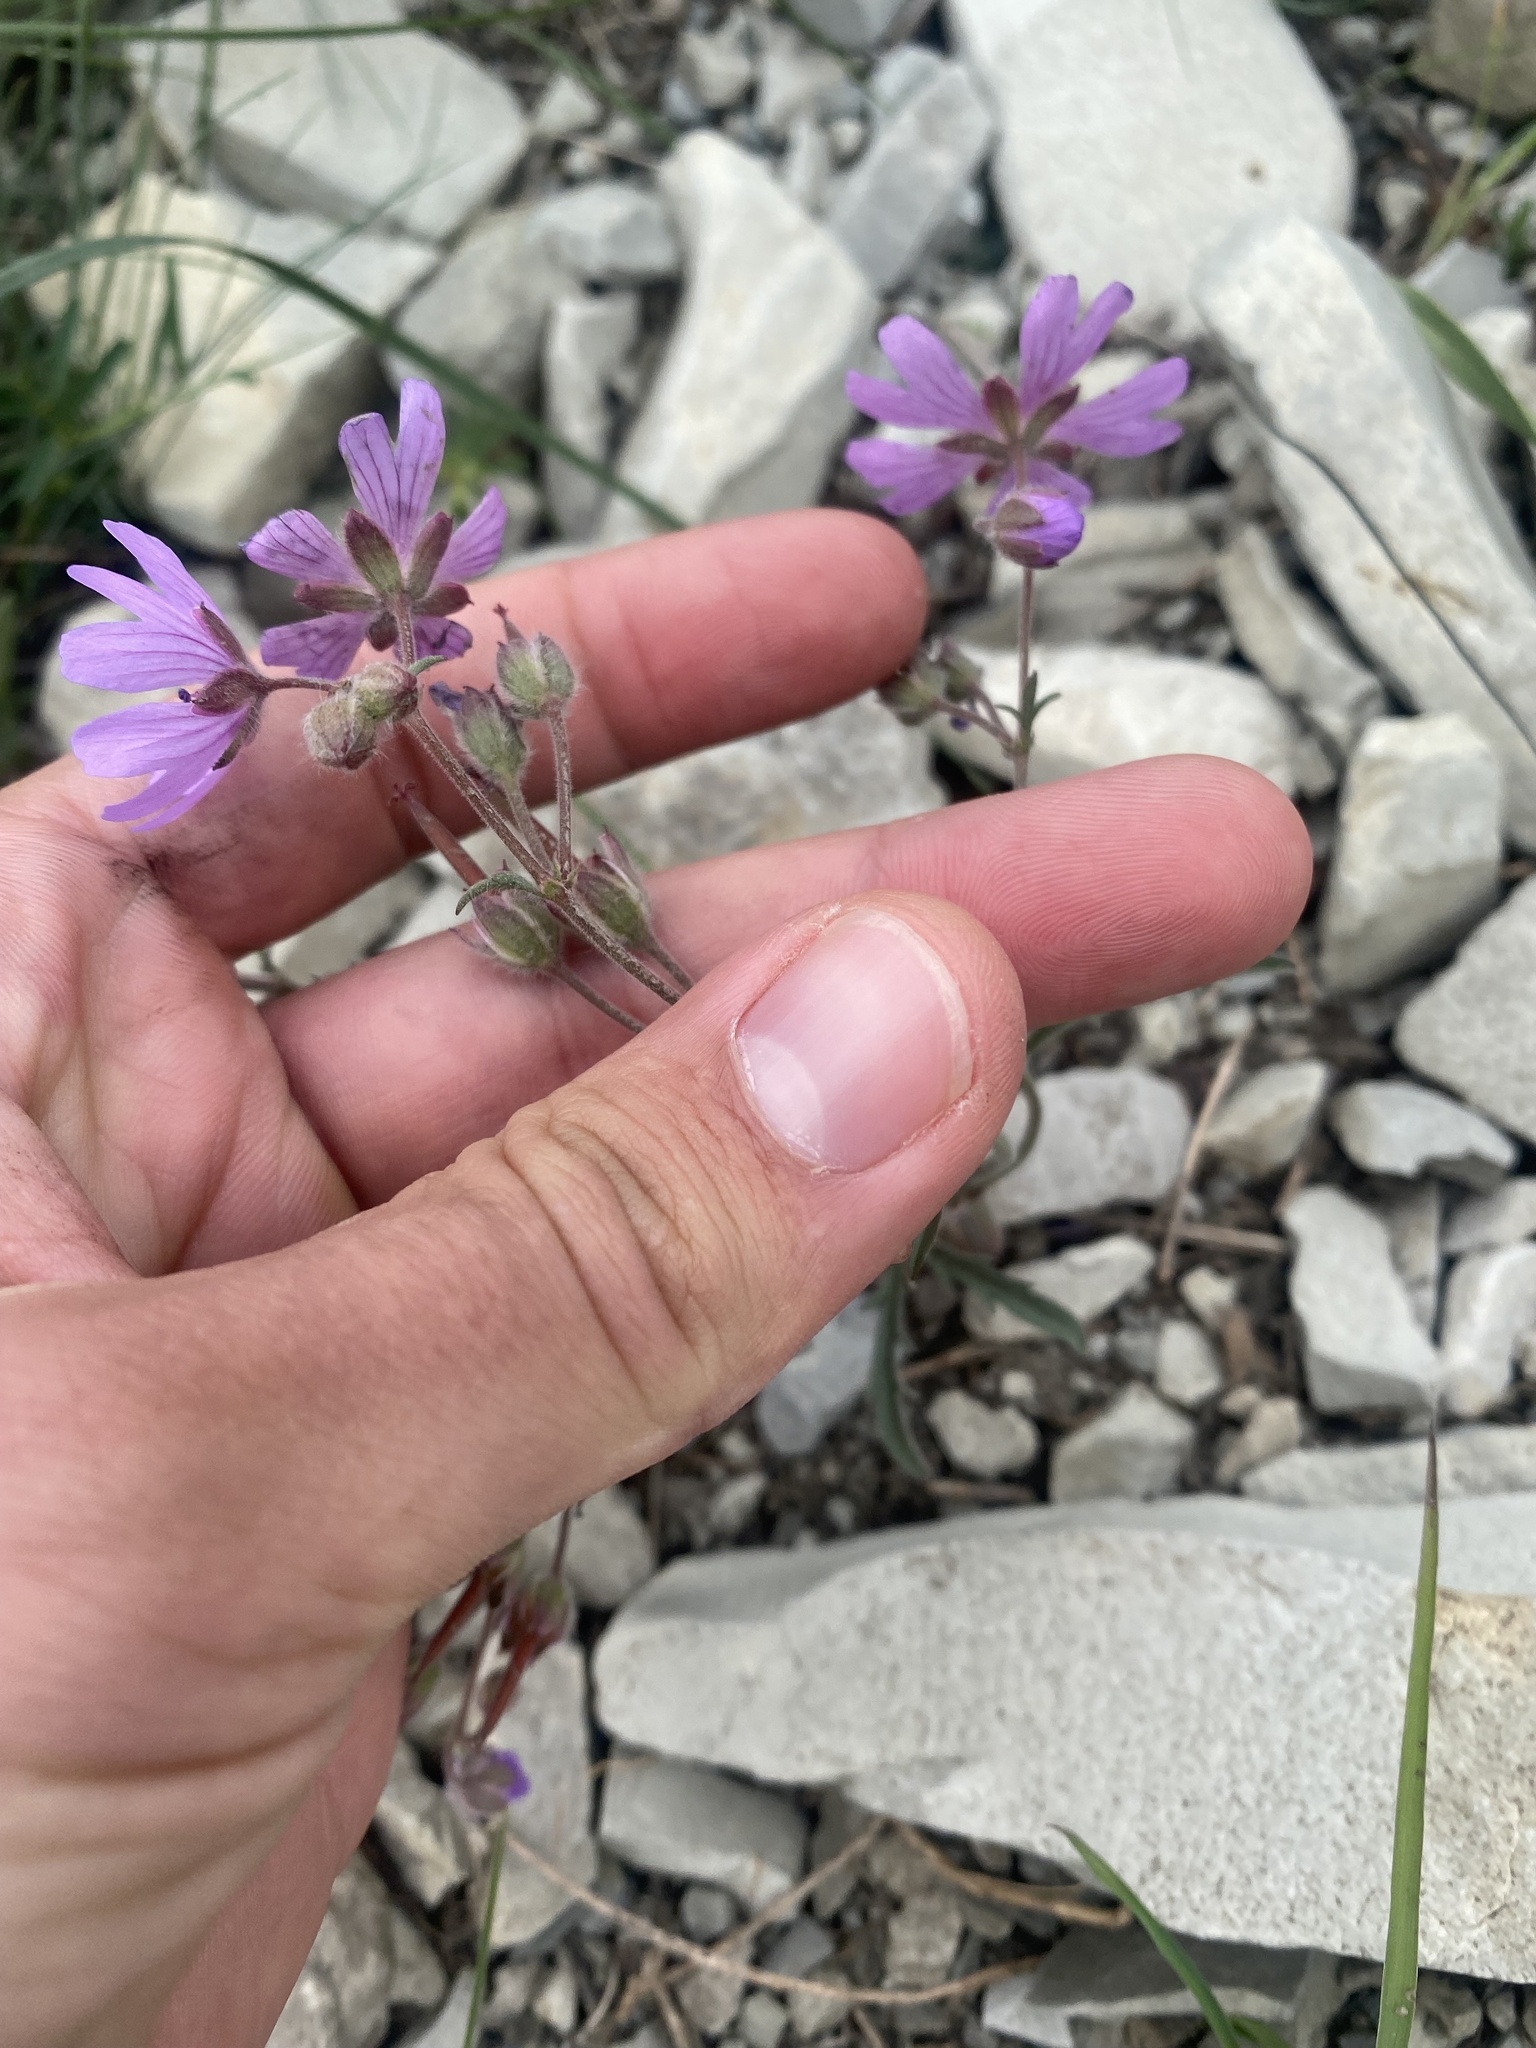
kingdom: Plantae
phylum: Tracheophyta
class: Magnoliopsida
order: Geraniales
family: Geraniaceae
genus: Geranium
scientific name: Geranium tuberosum
